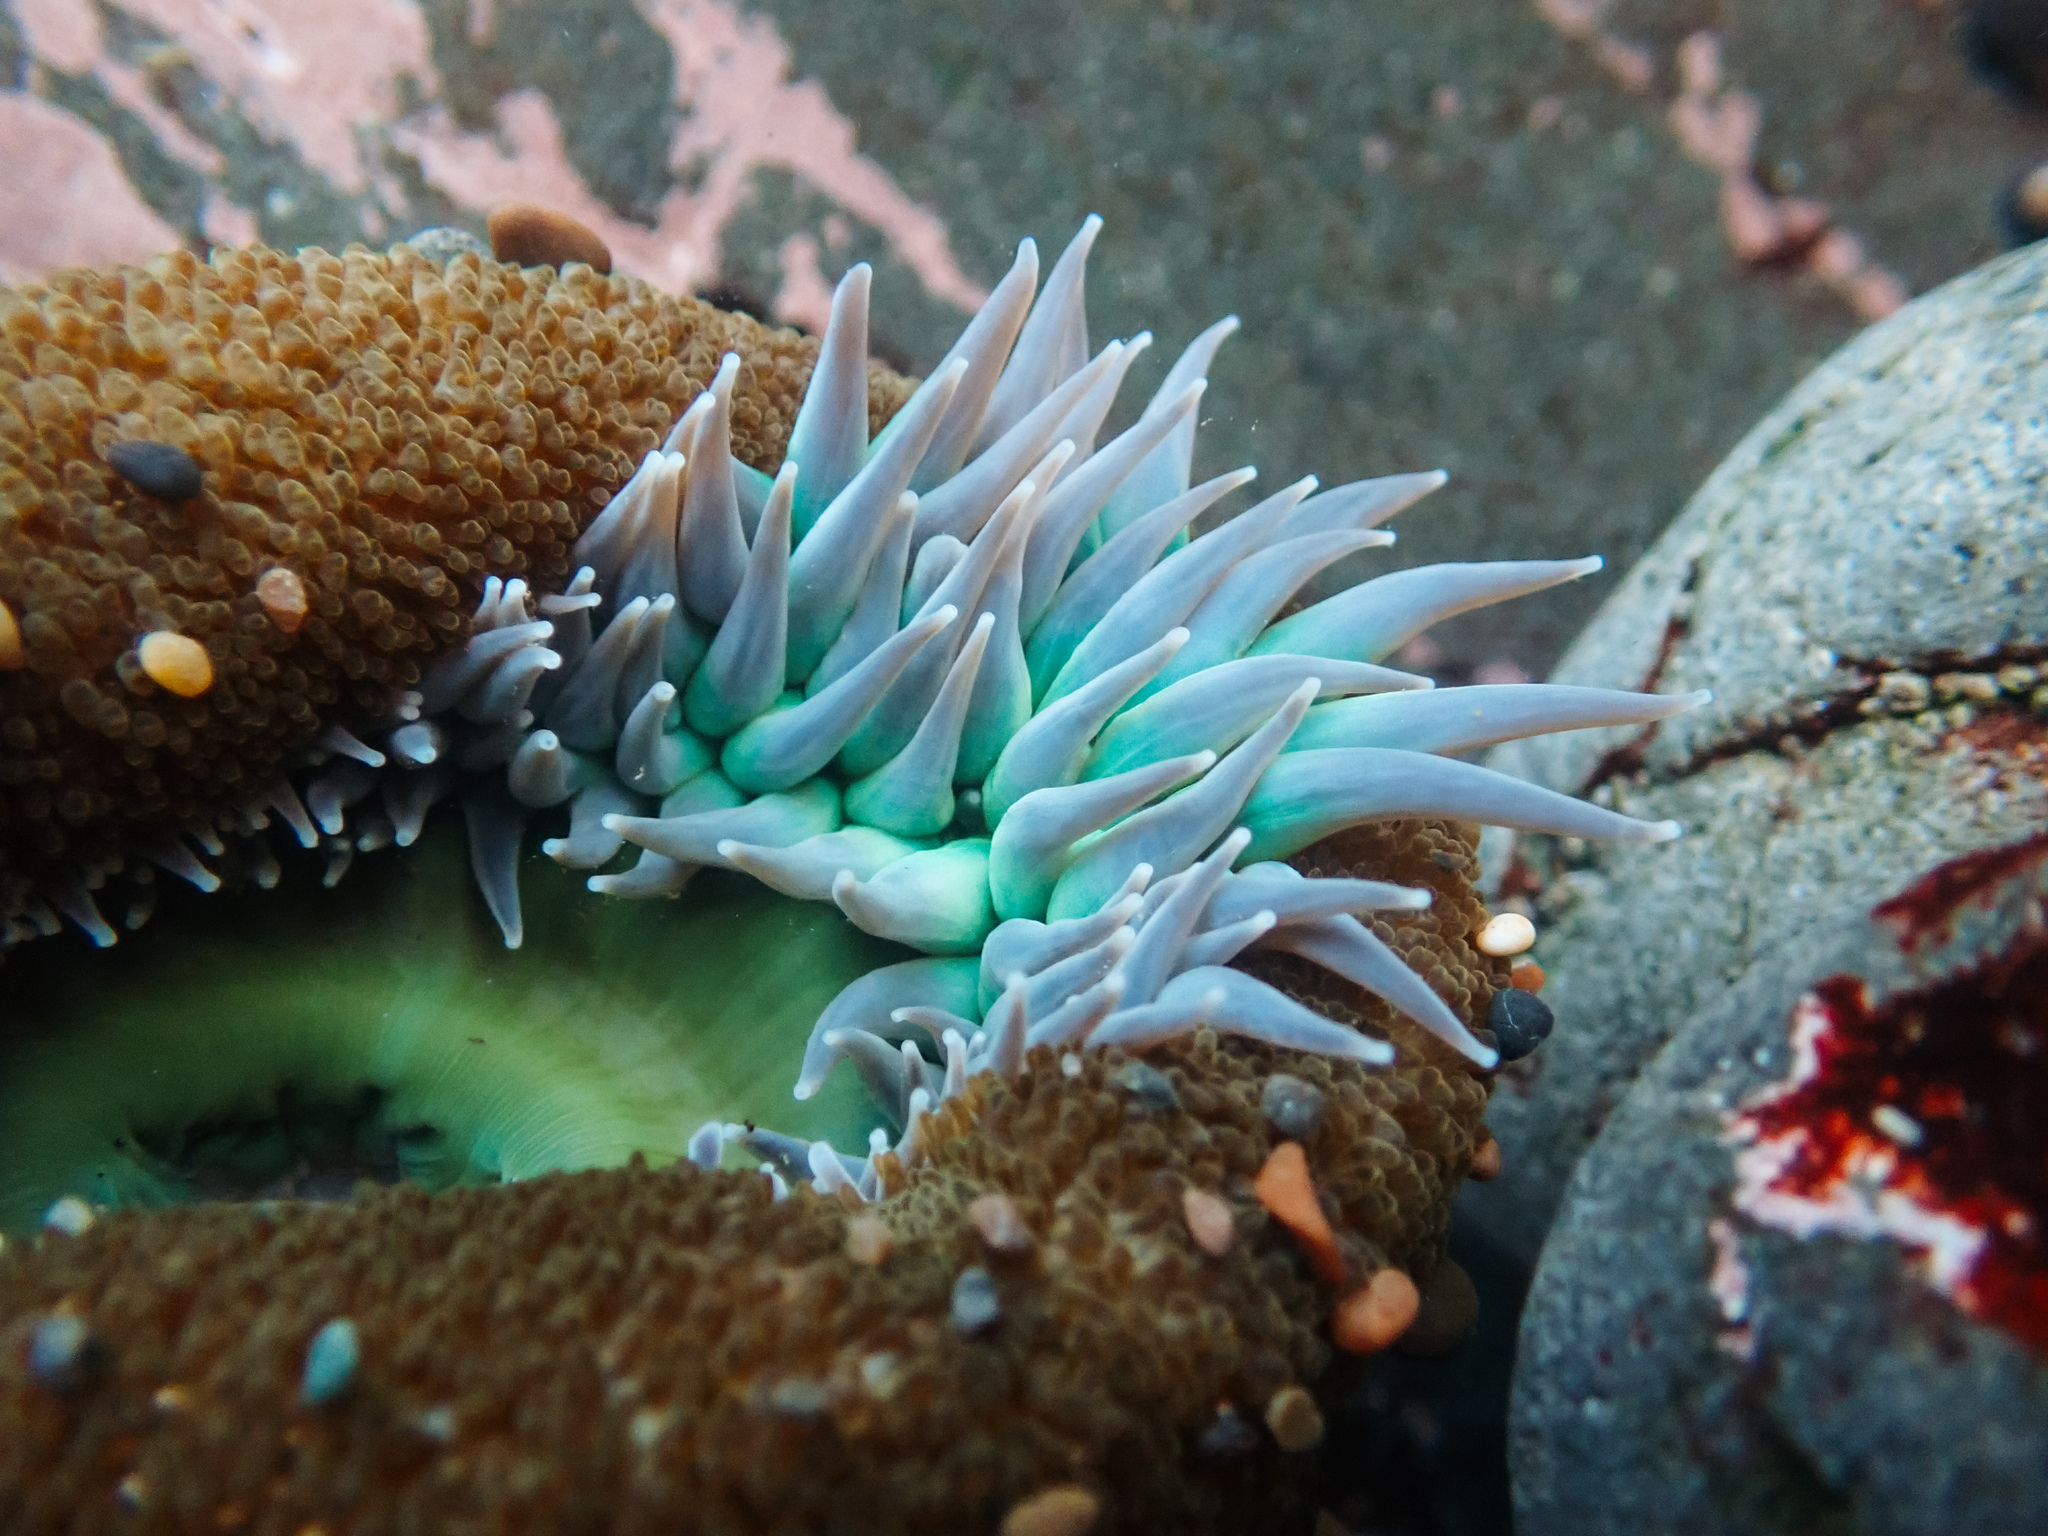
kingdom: Animalia
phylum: Cnidaria
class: Anthozoa
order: Actiniaria
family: Actiniidae
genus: Anthopleura
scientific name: Anthopleura xanthogrammica
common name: Giant green anemone
